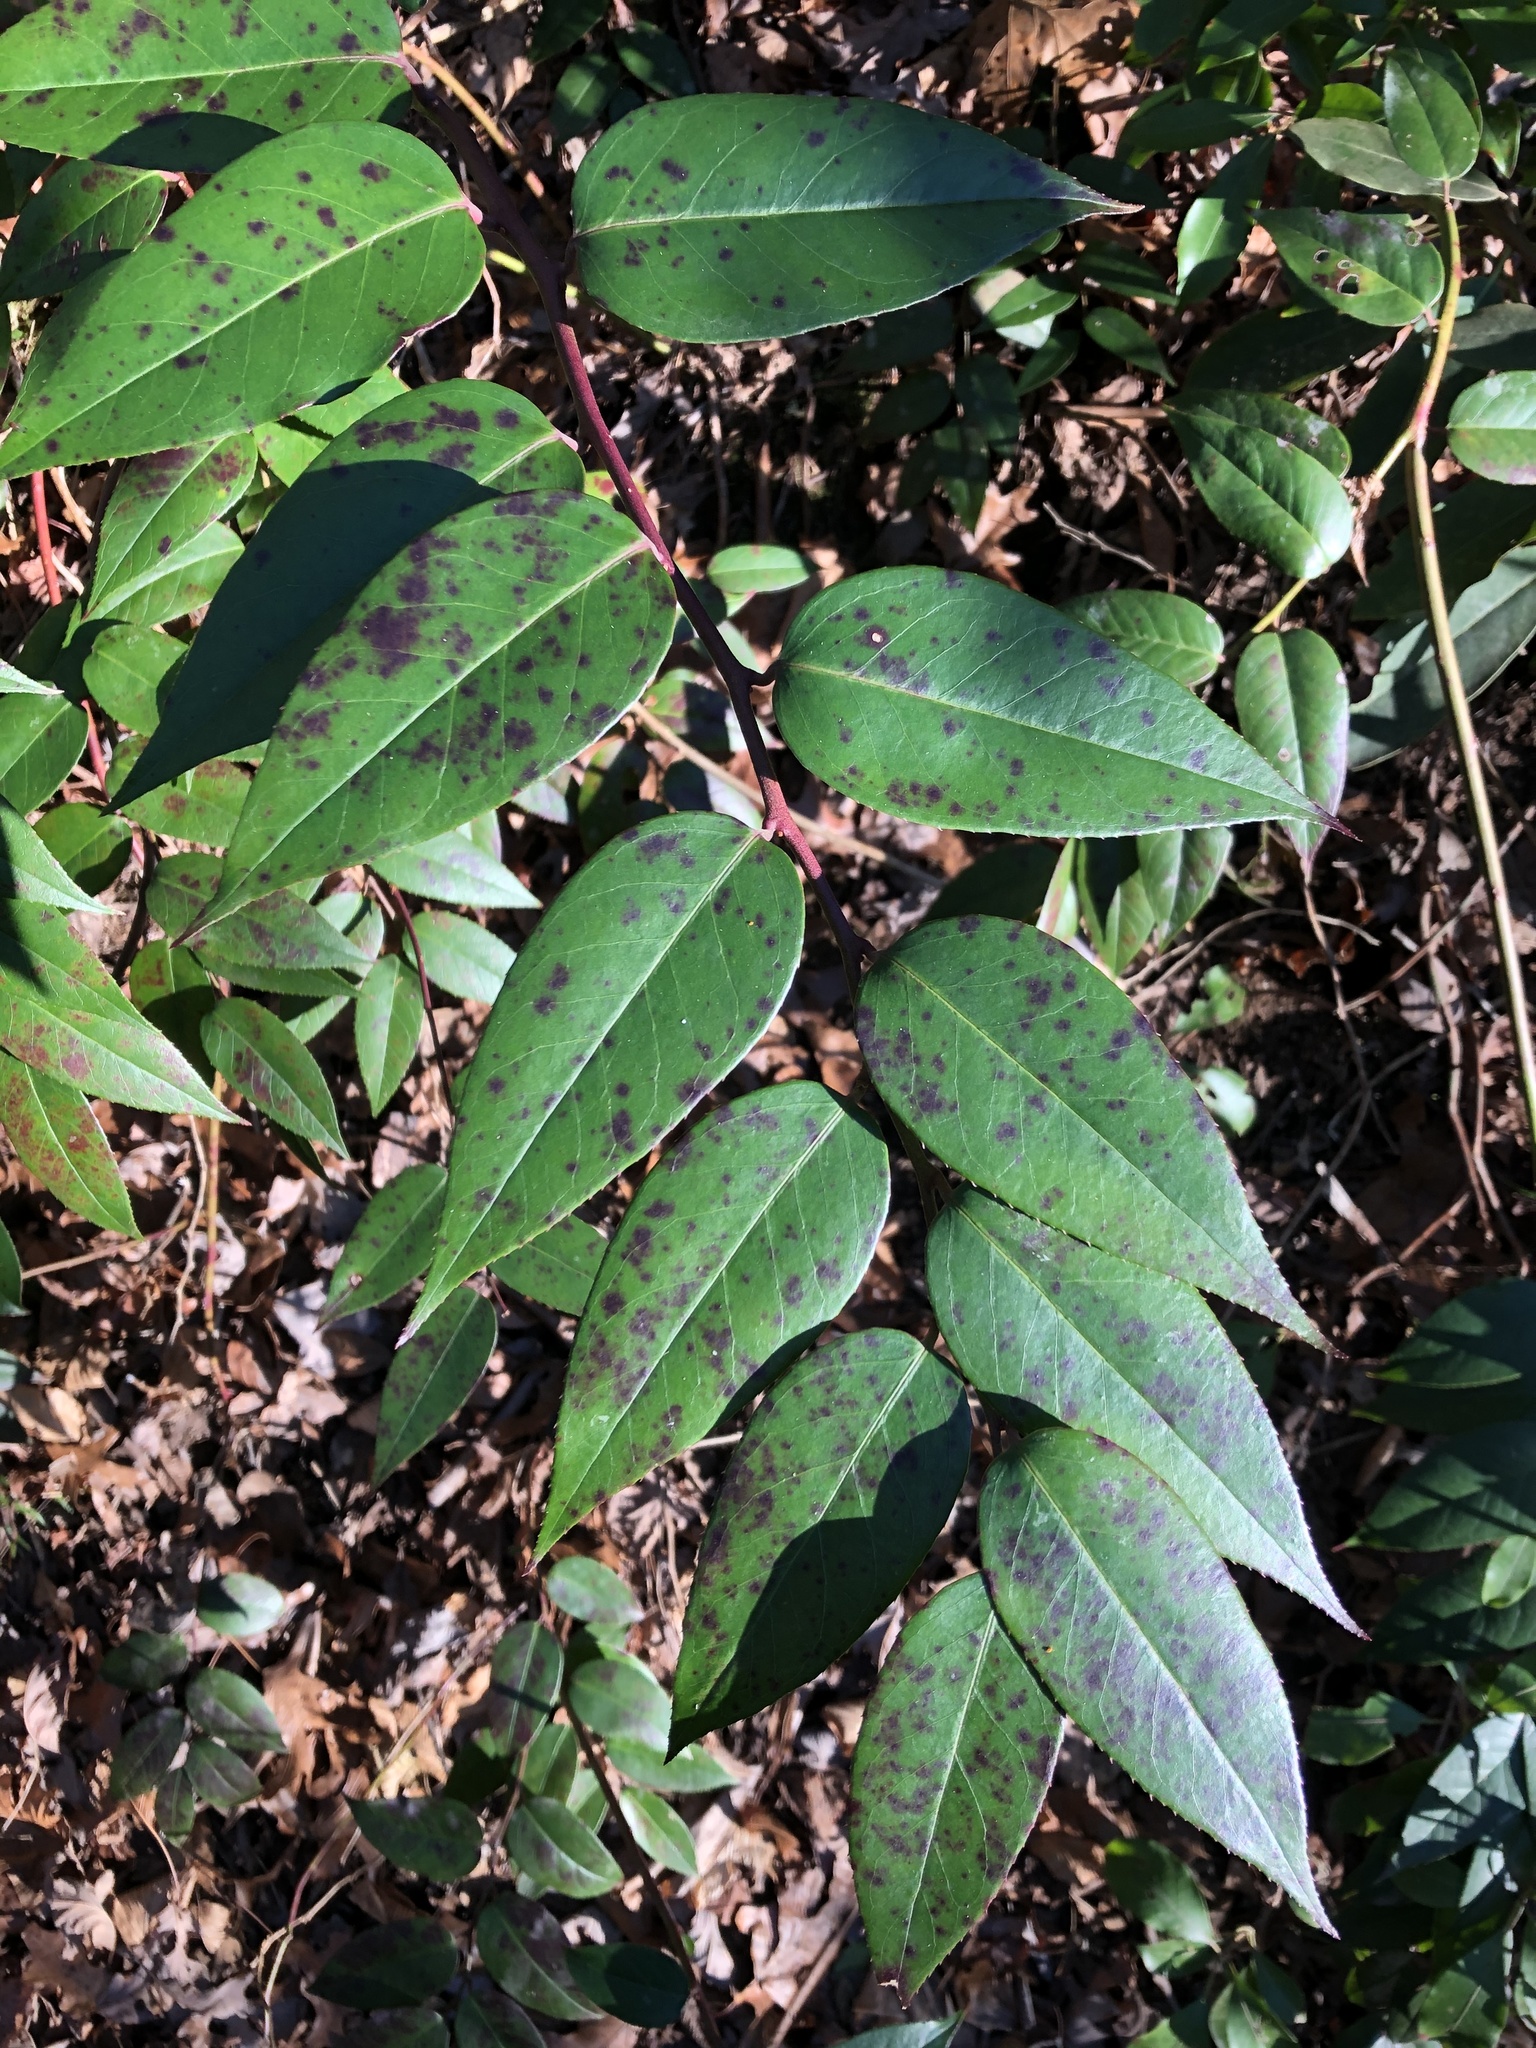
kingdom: Plantae
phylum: Tracheophyta
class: Magnoliopsida
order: Ericales
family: Ericaceae
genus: Leucothoe
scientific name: Leucothoe fontanesiana
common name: Fetterbush
